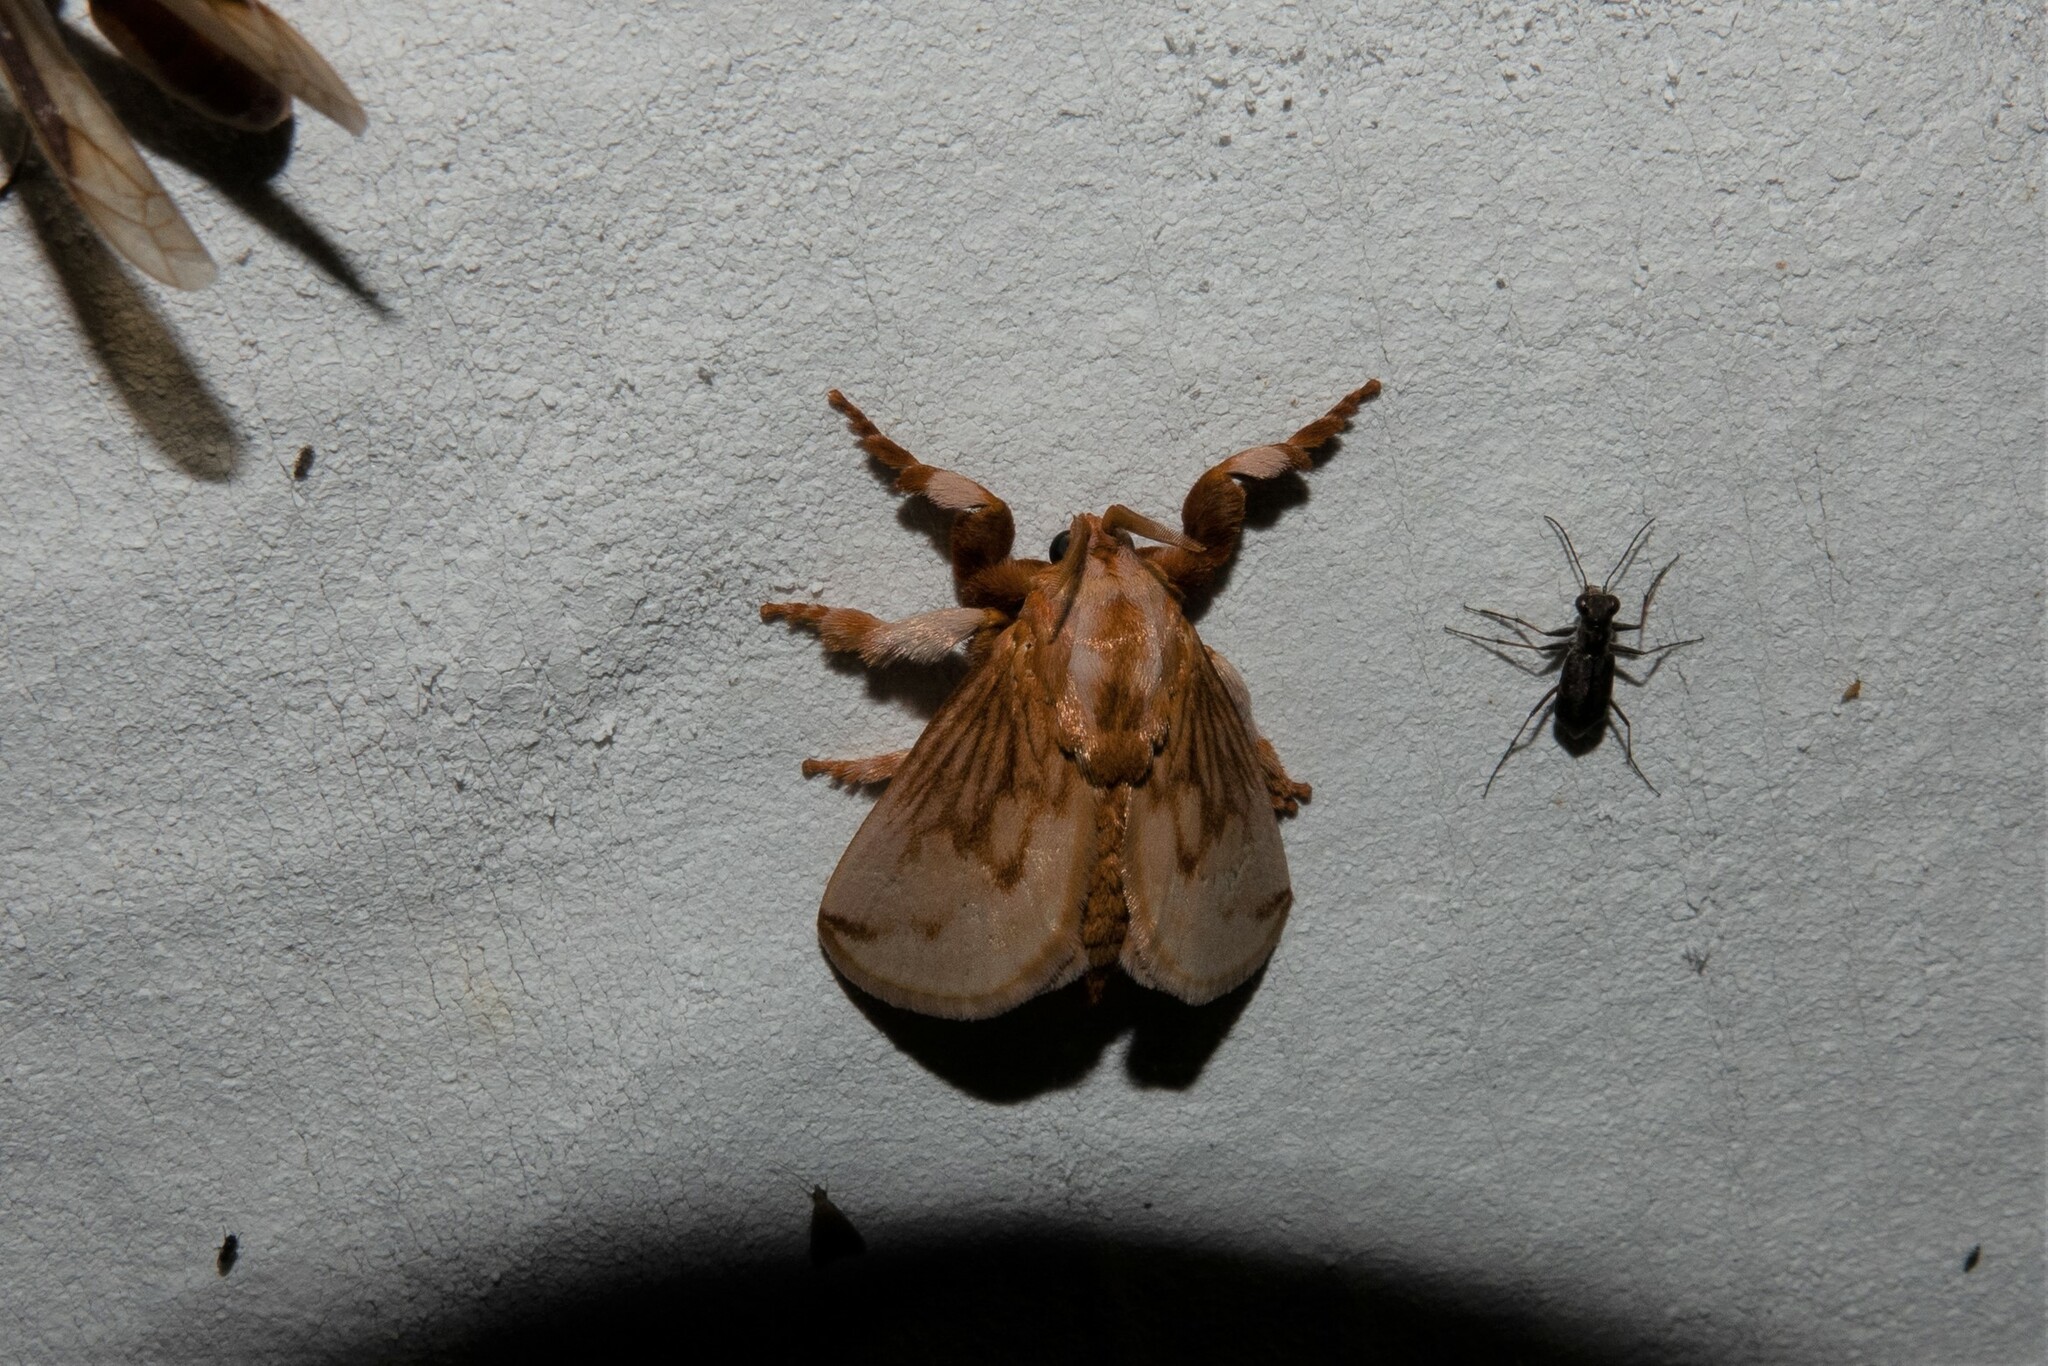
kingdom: Animalia
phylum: Arthropoda
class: Insecta
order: Lepidoptera
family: Limacodidae
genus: Perola
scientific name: Perola sericea
